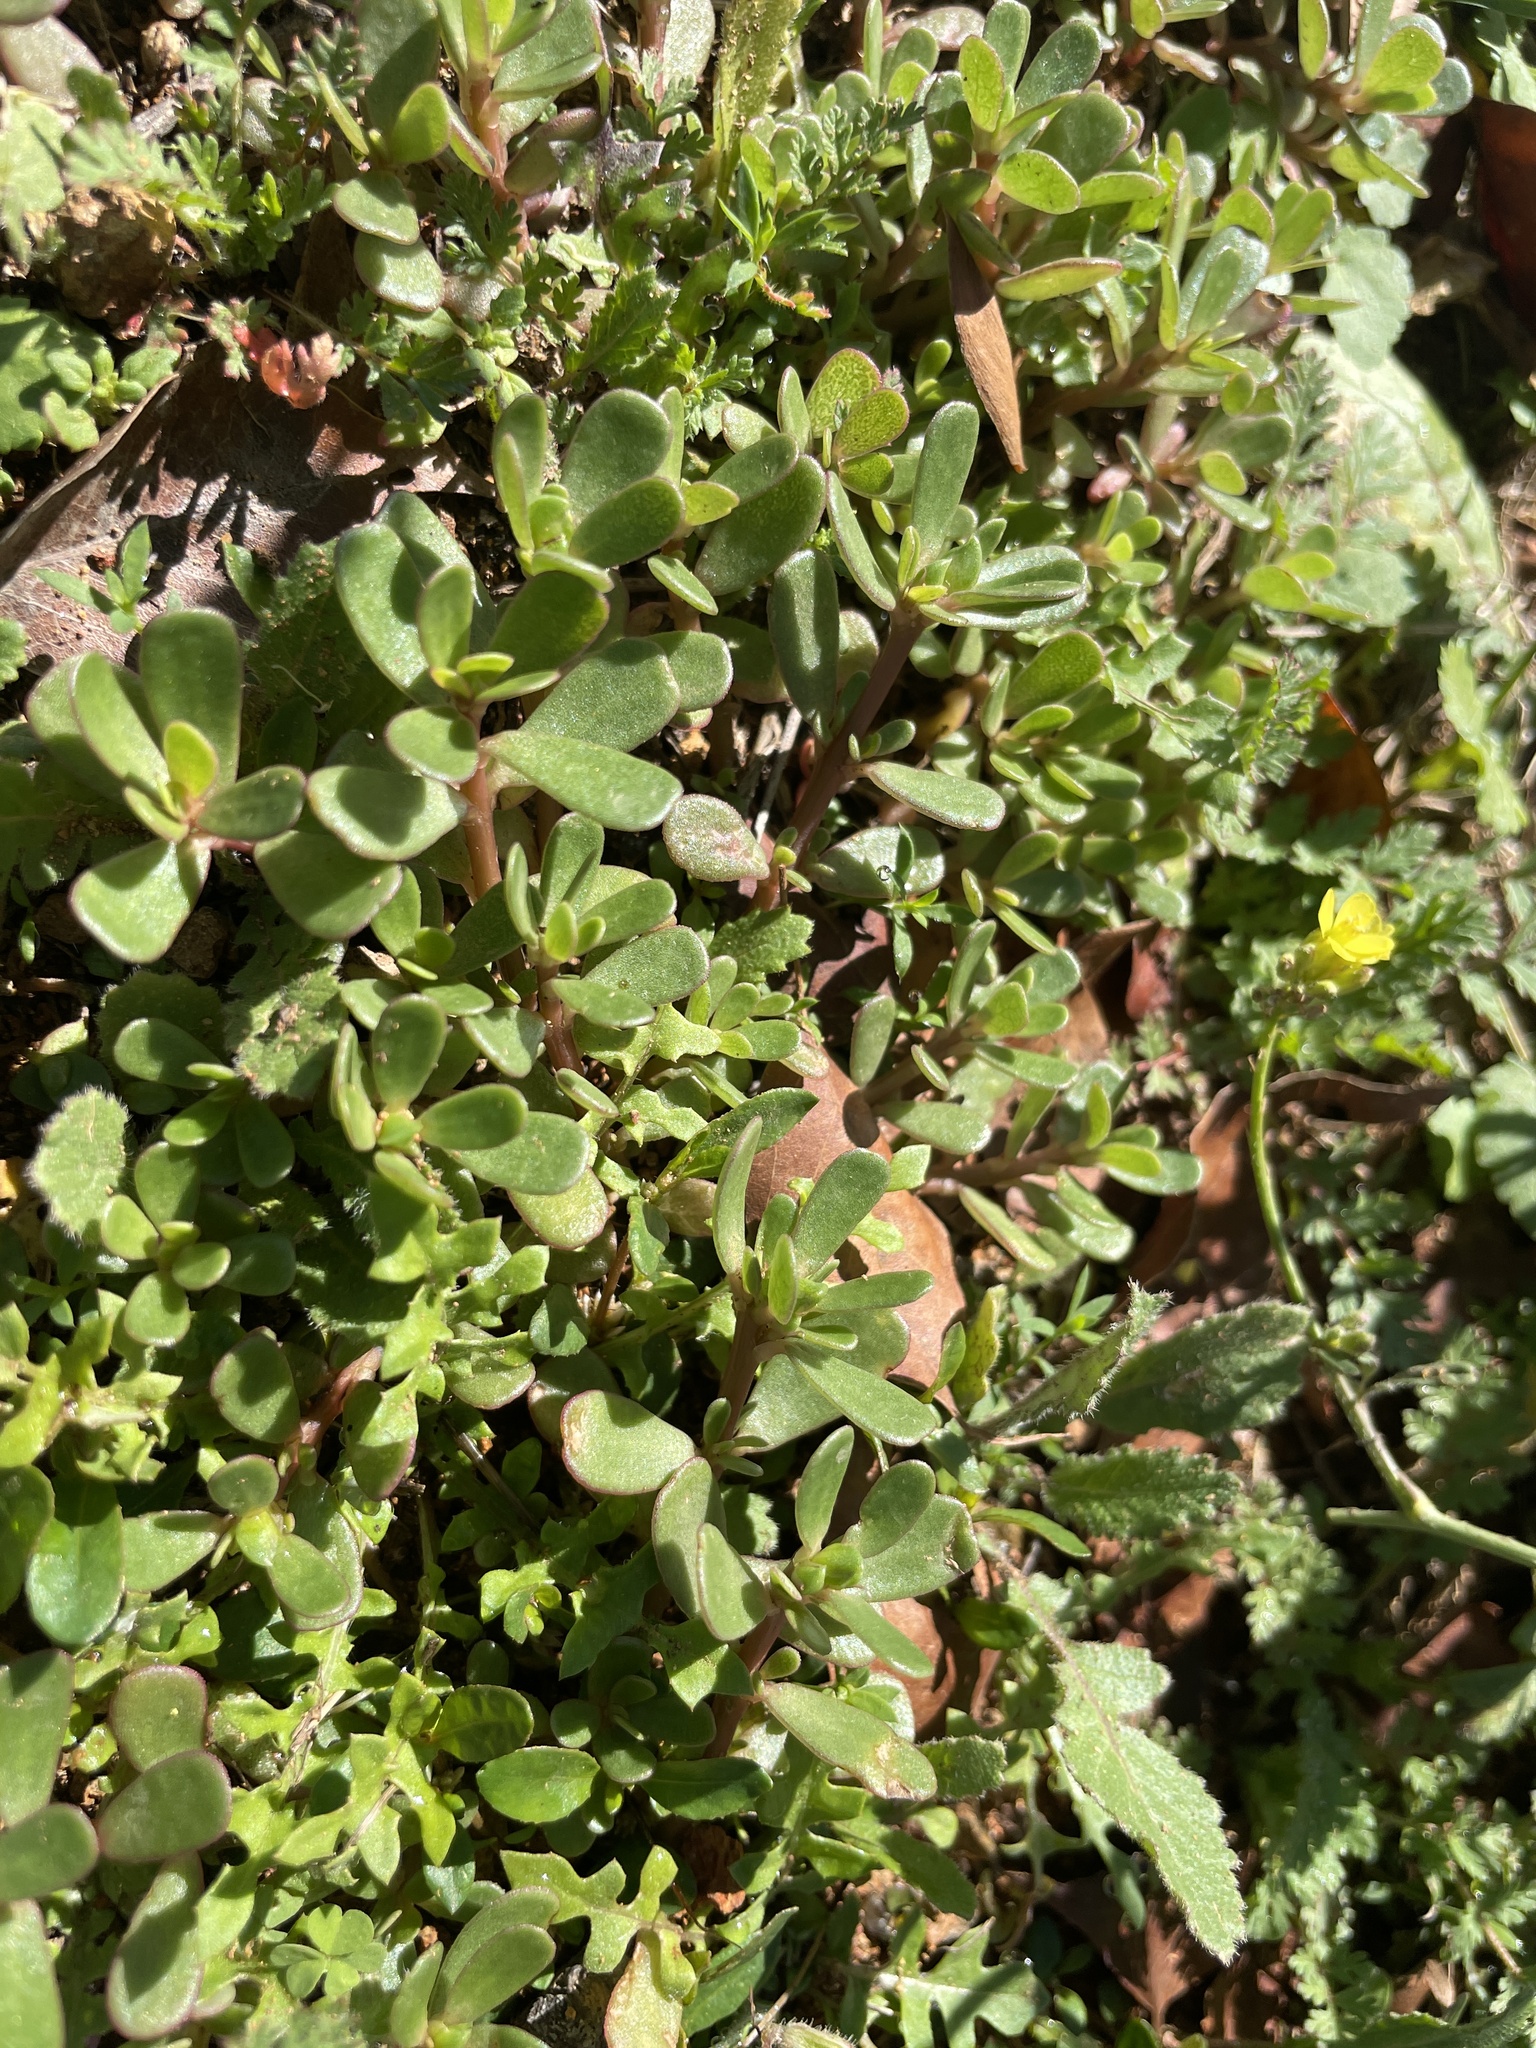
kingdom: Plantae
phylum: Tracheophyta
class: Magnoliopsida
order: Caryophyllales
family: Portulacaceae
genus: Portulaca
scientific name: Portulaca oleracea
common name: Common purslane
